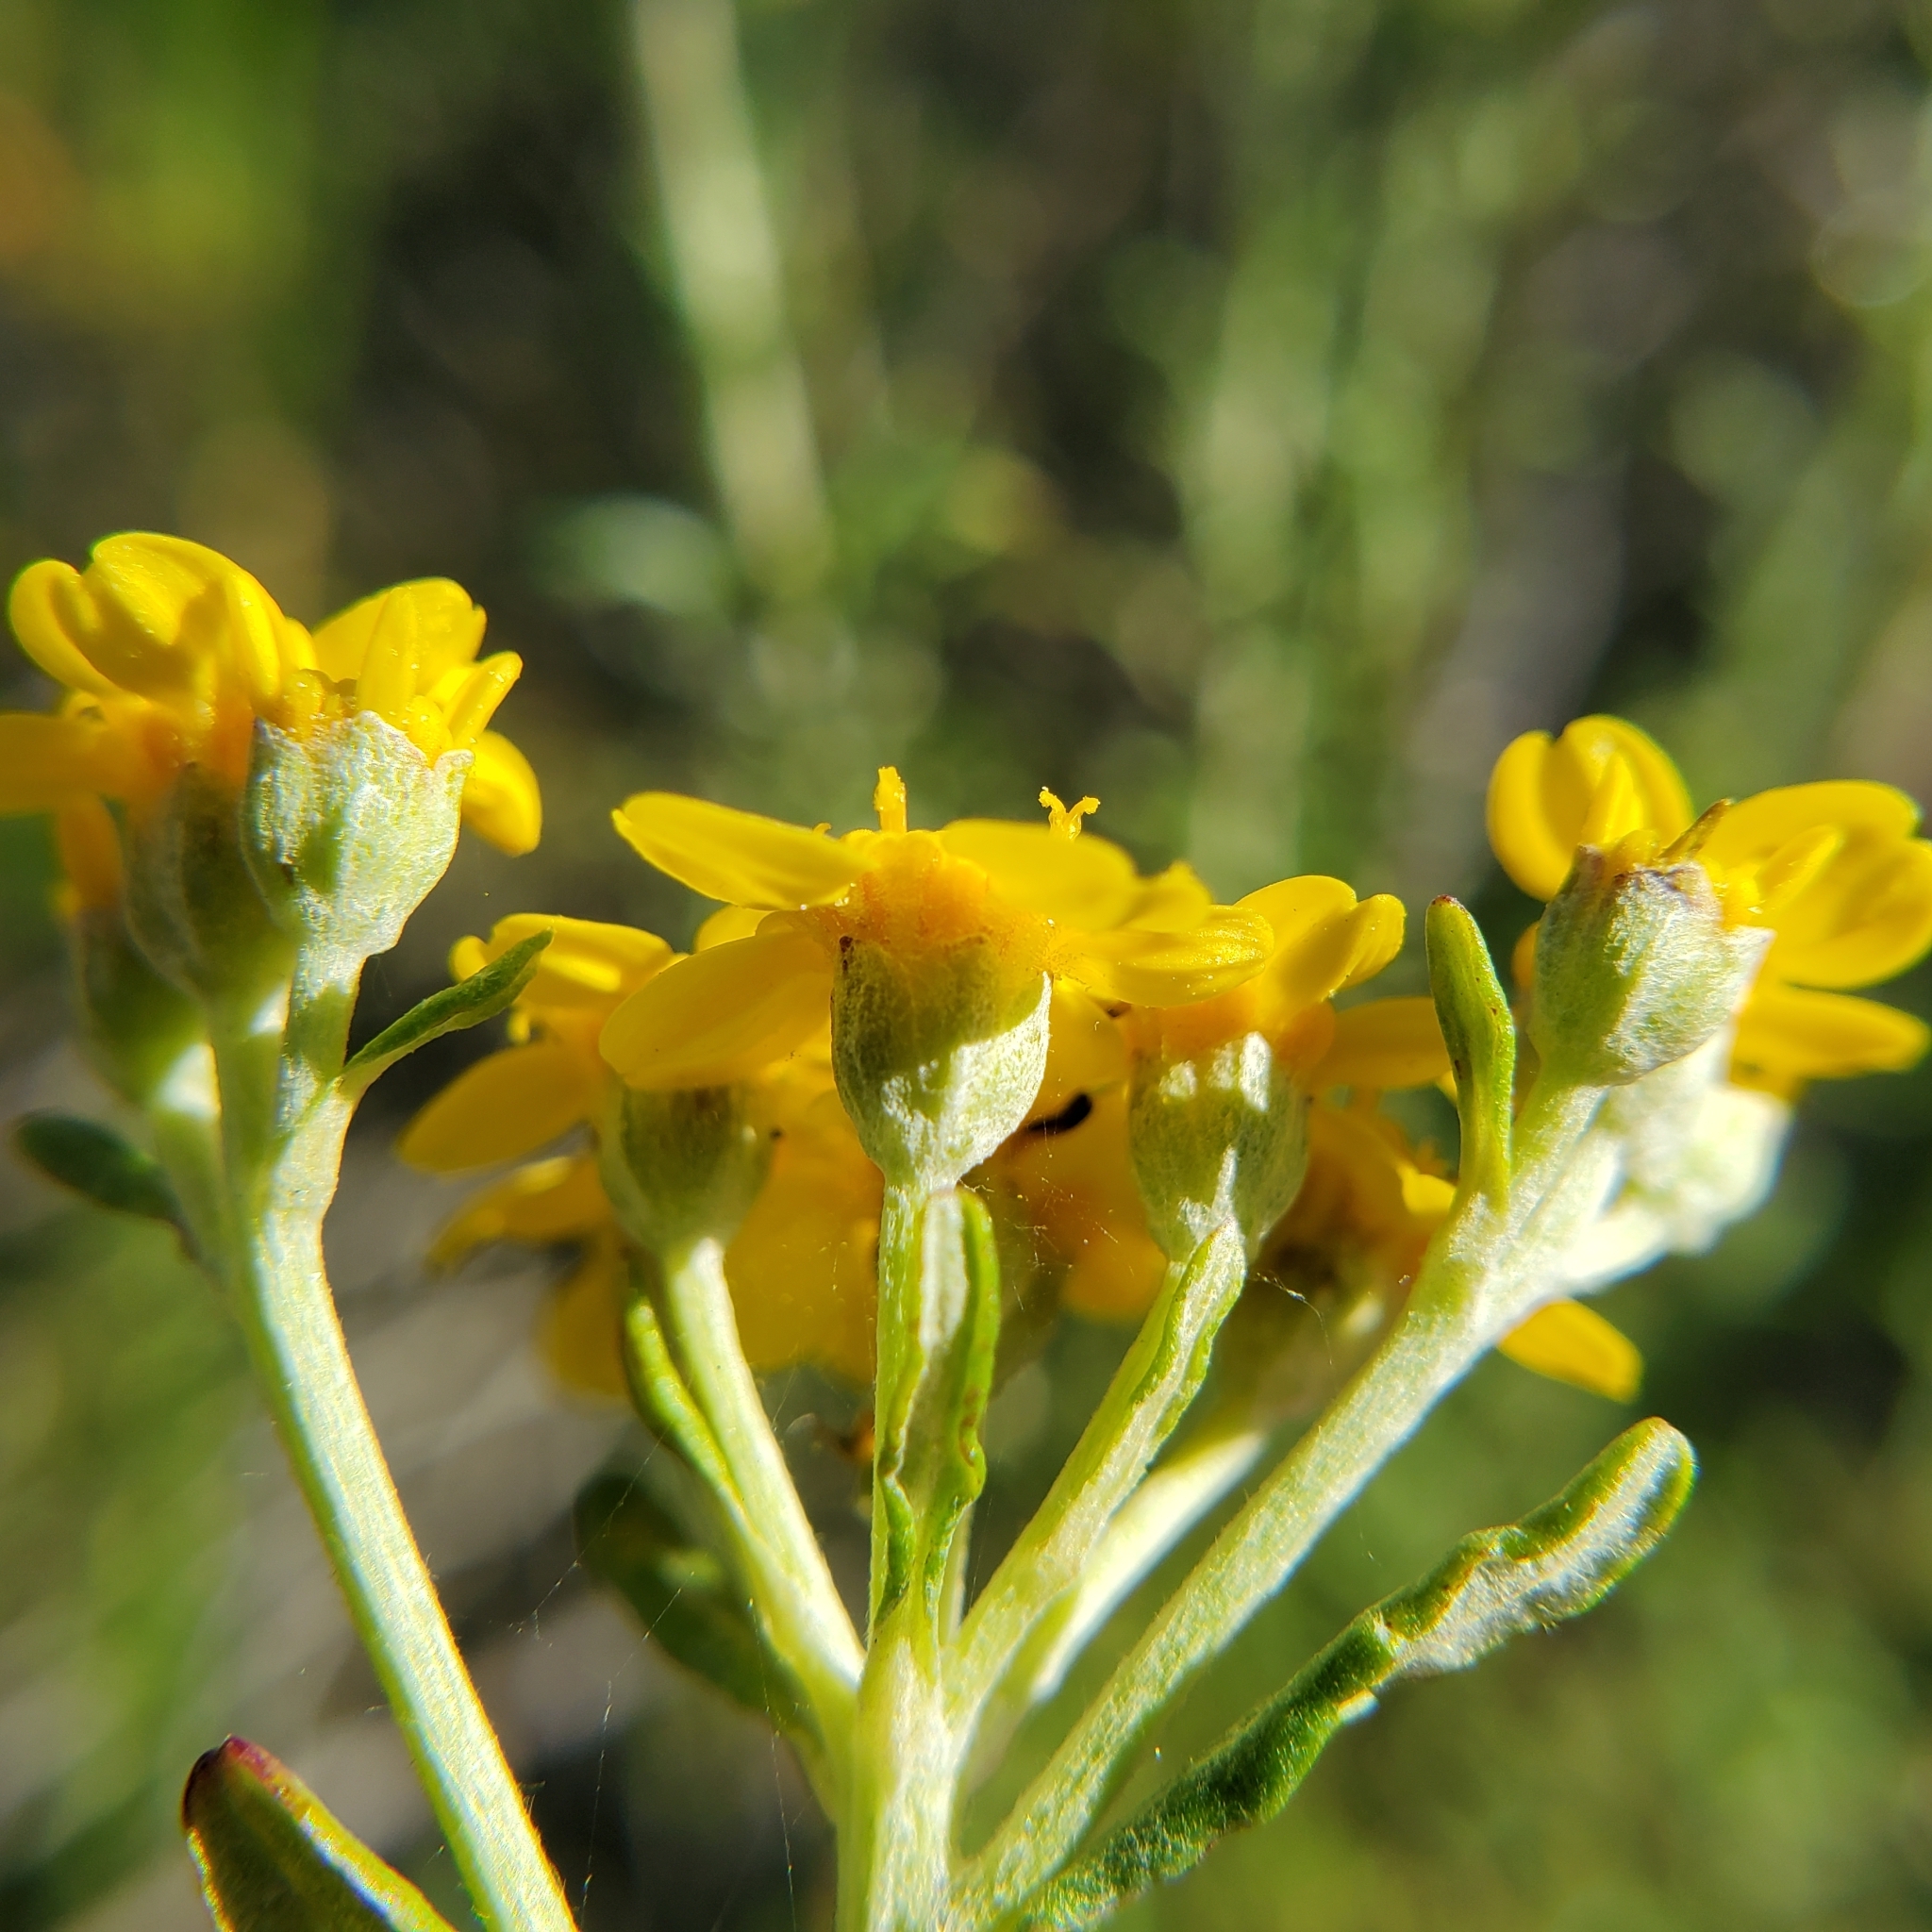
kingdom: Plantae
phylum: Tracheophyta
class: Magnoliopsida
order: Asterales
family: Asteraceae
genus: Eriophyllum
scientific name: Eriophyllum confertiflorum
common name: Golden-yarrow
